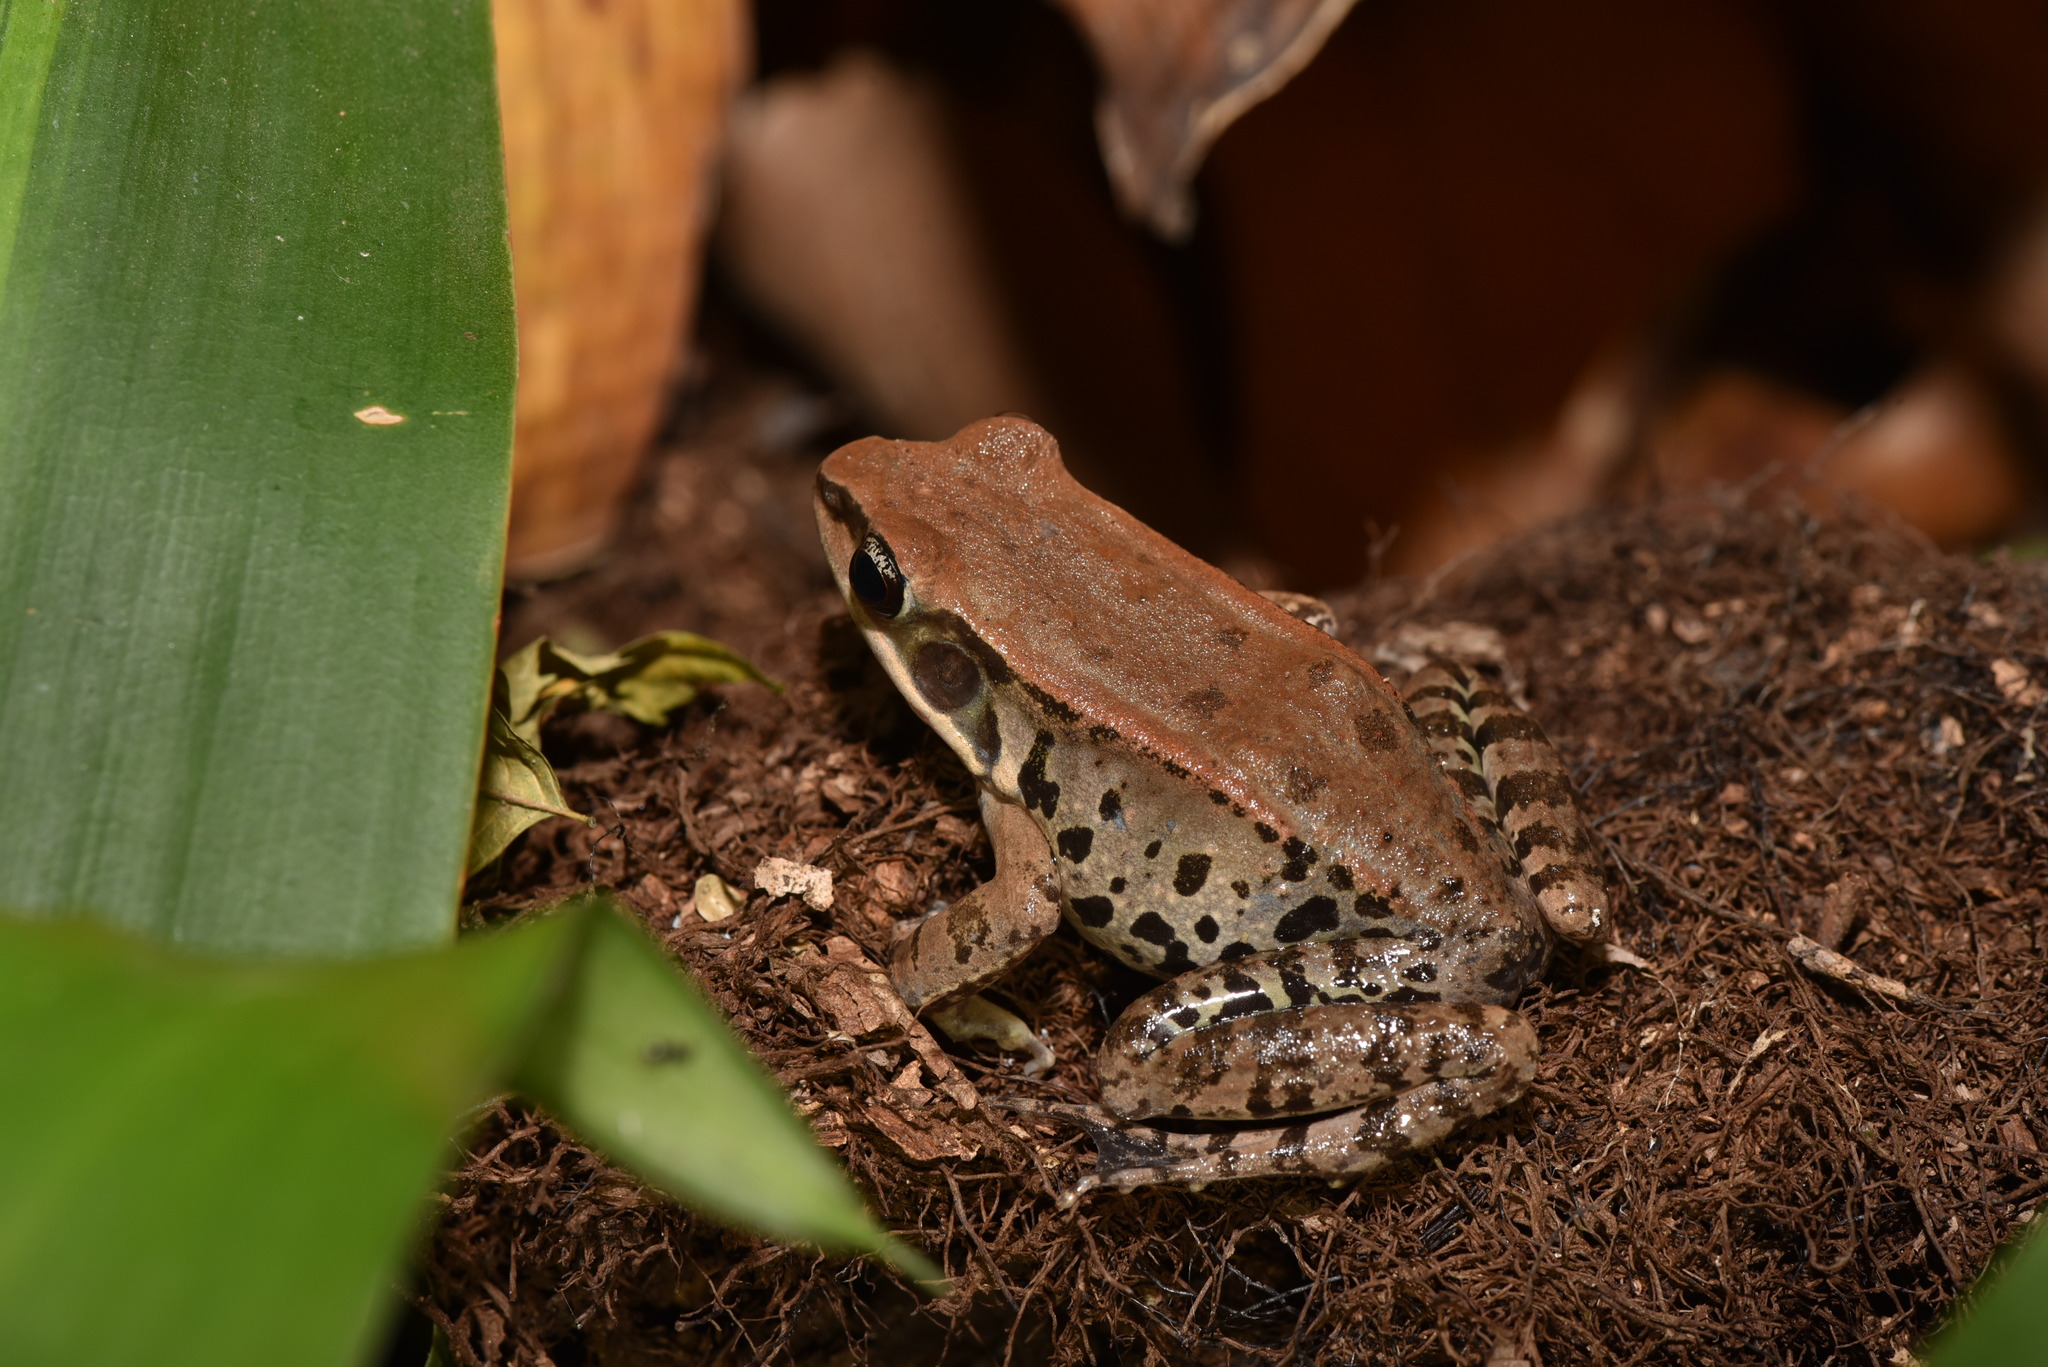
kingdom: Animalia
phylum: Chordata
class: Amphibia
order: Anura
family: Ranidae
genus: Hylarana
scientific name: Hylarana latouchii
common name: Broad-folded frog
